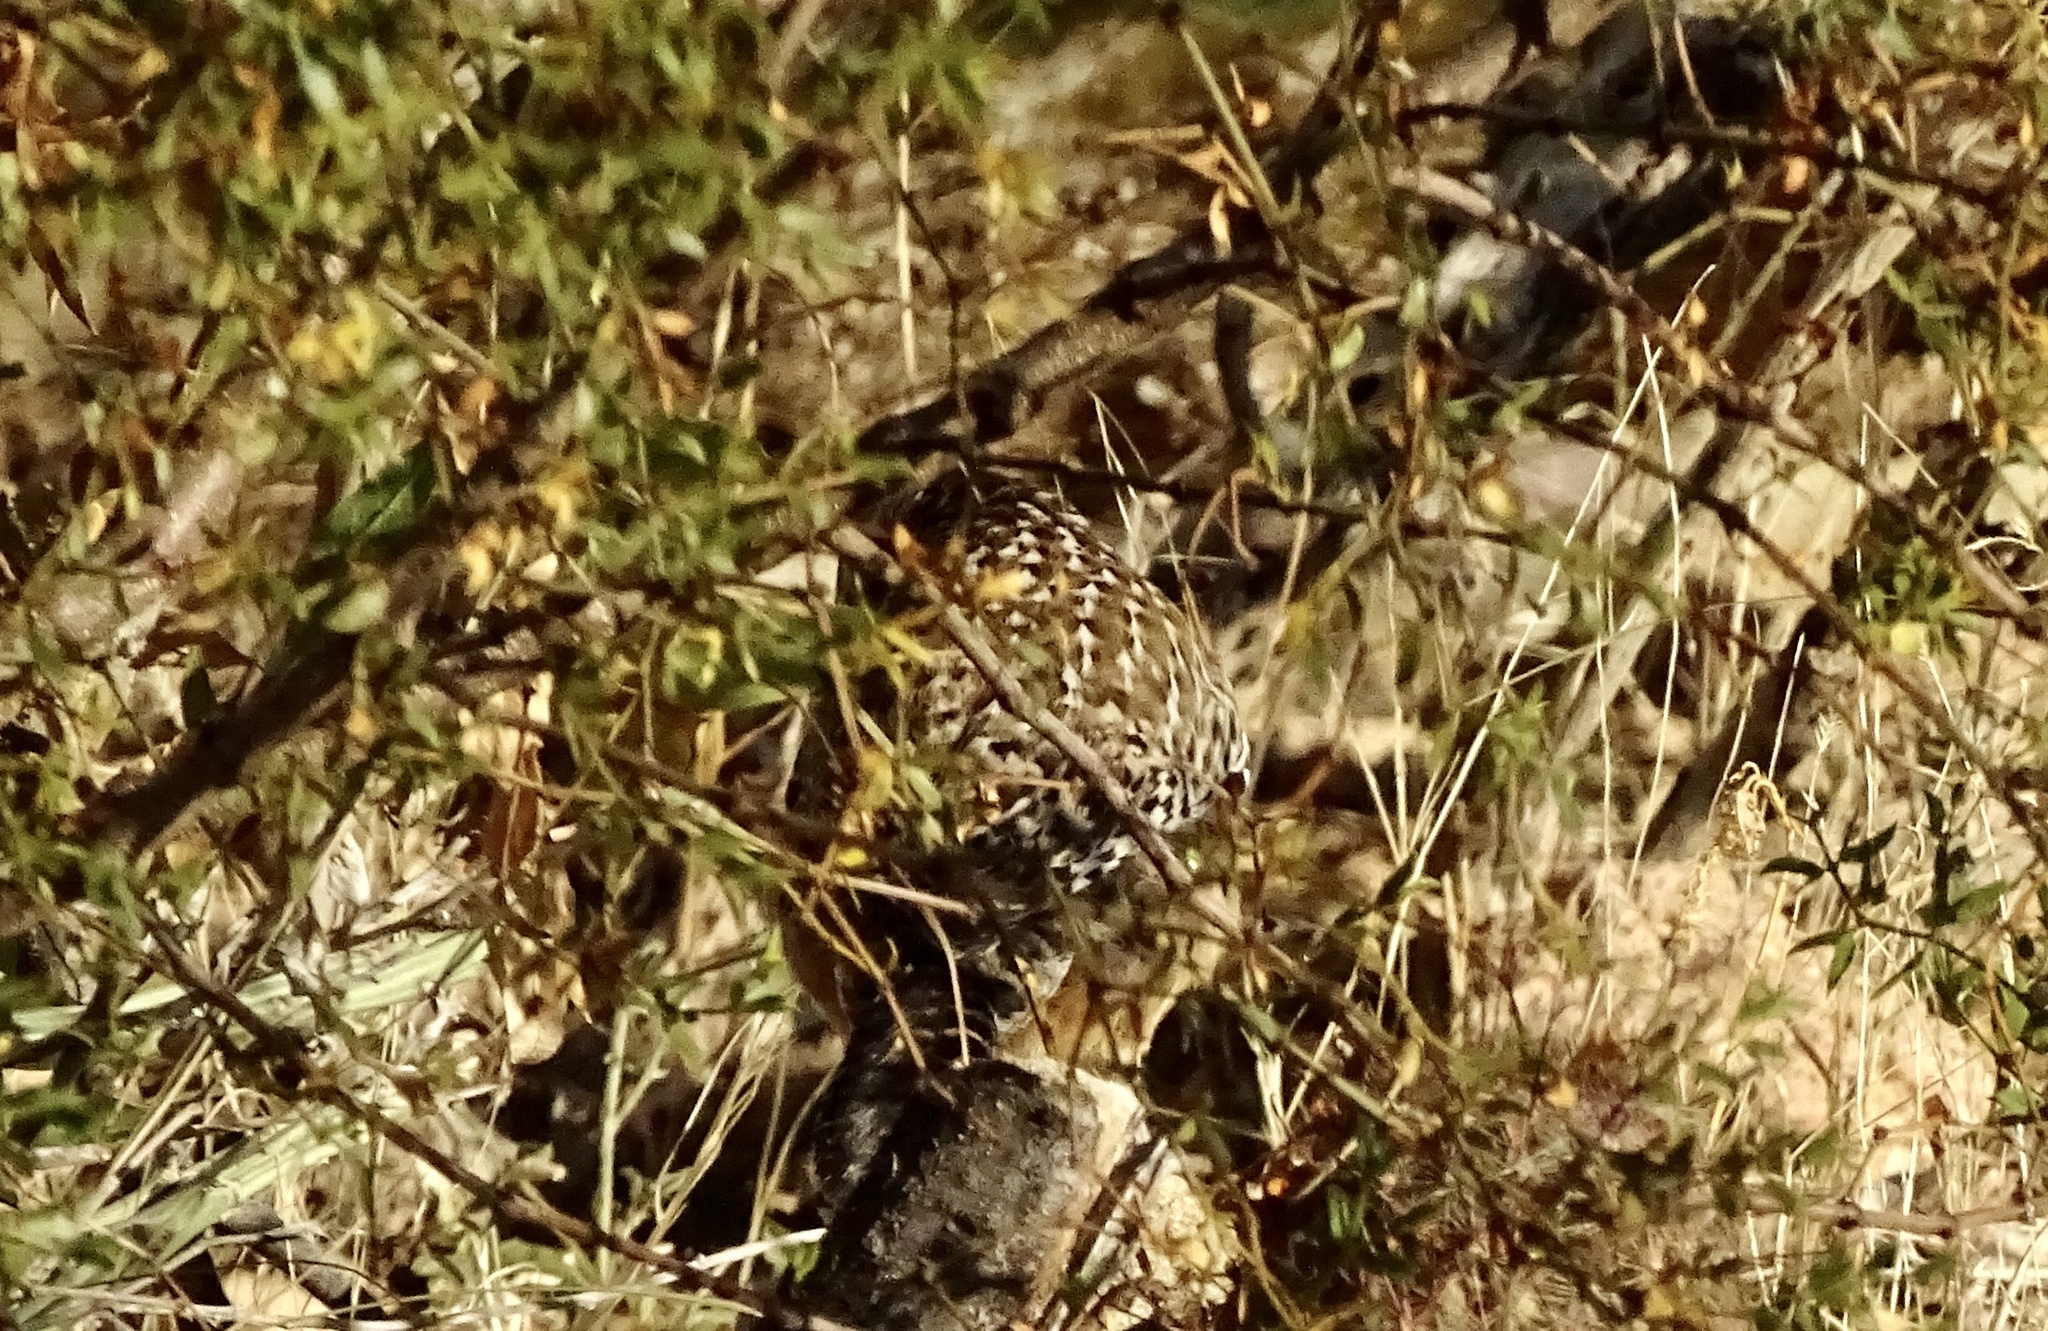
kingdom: Animalia
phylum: Chordata
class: Aves
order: Passeriformes
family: Troglodytidae
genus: Campylorhynchus
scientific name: Campylorhynchus brunneicapillus
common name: Cactus wren
